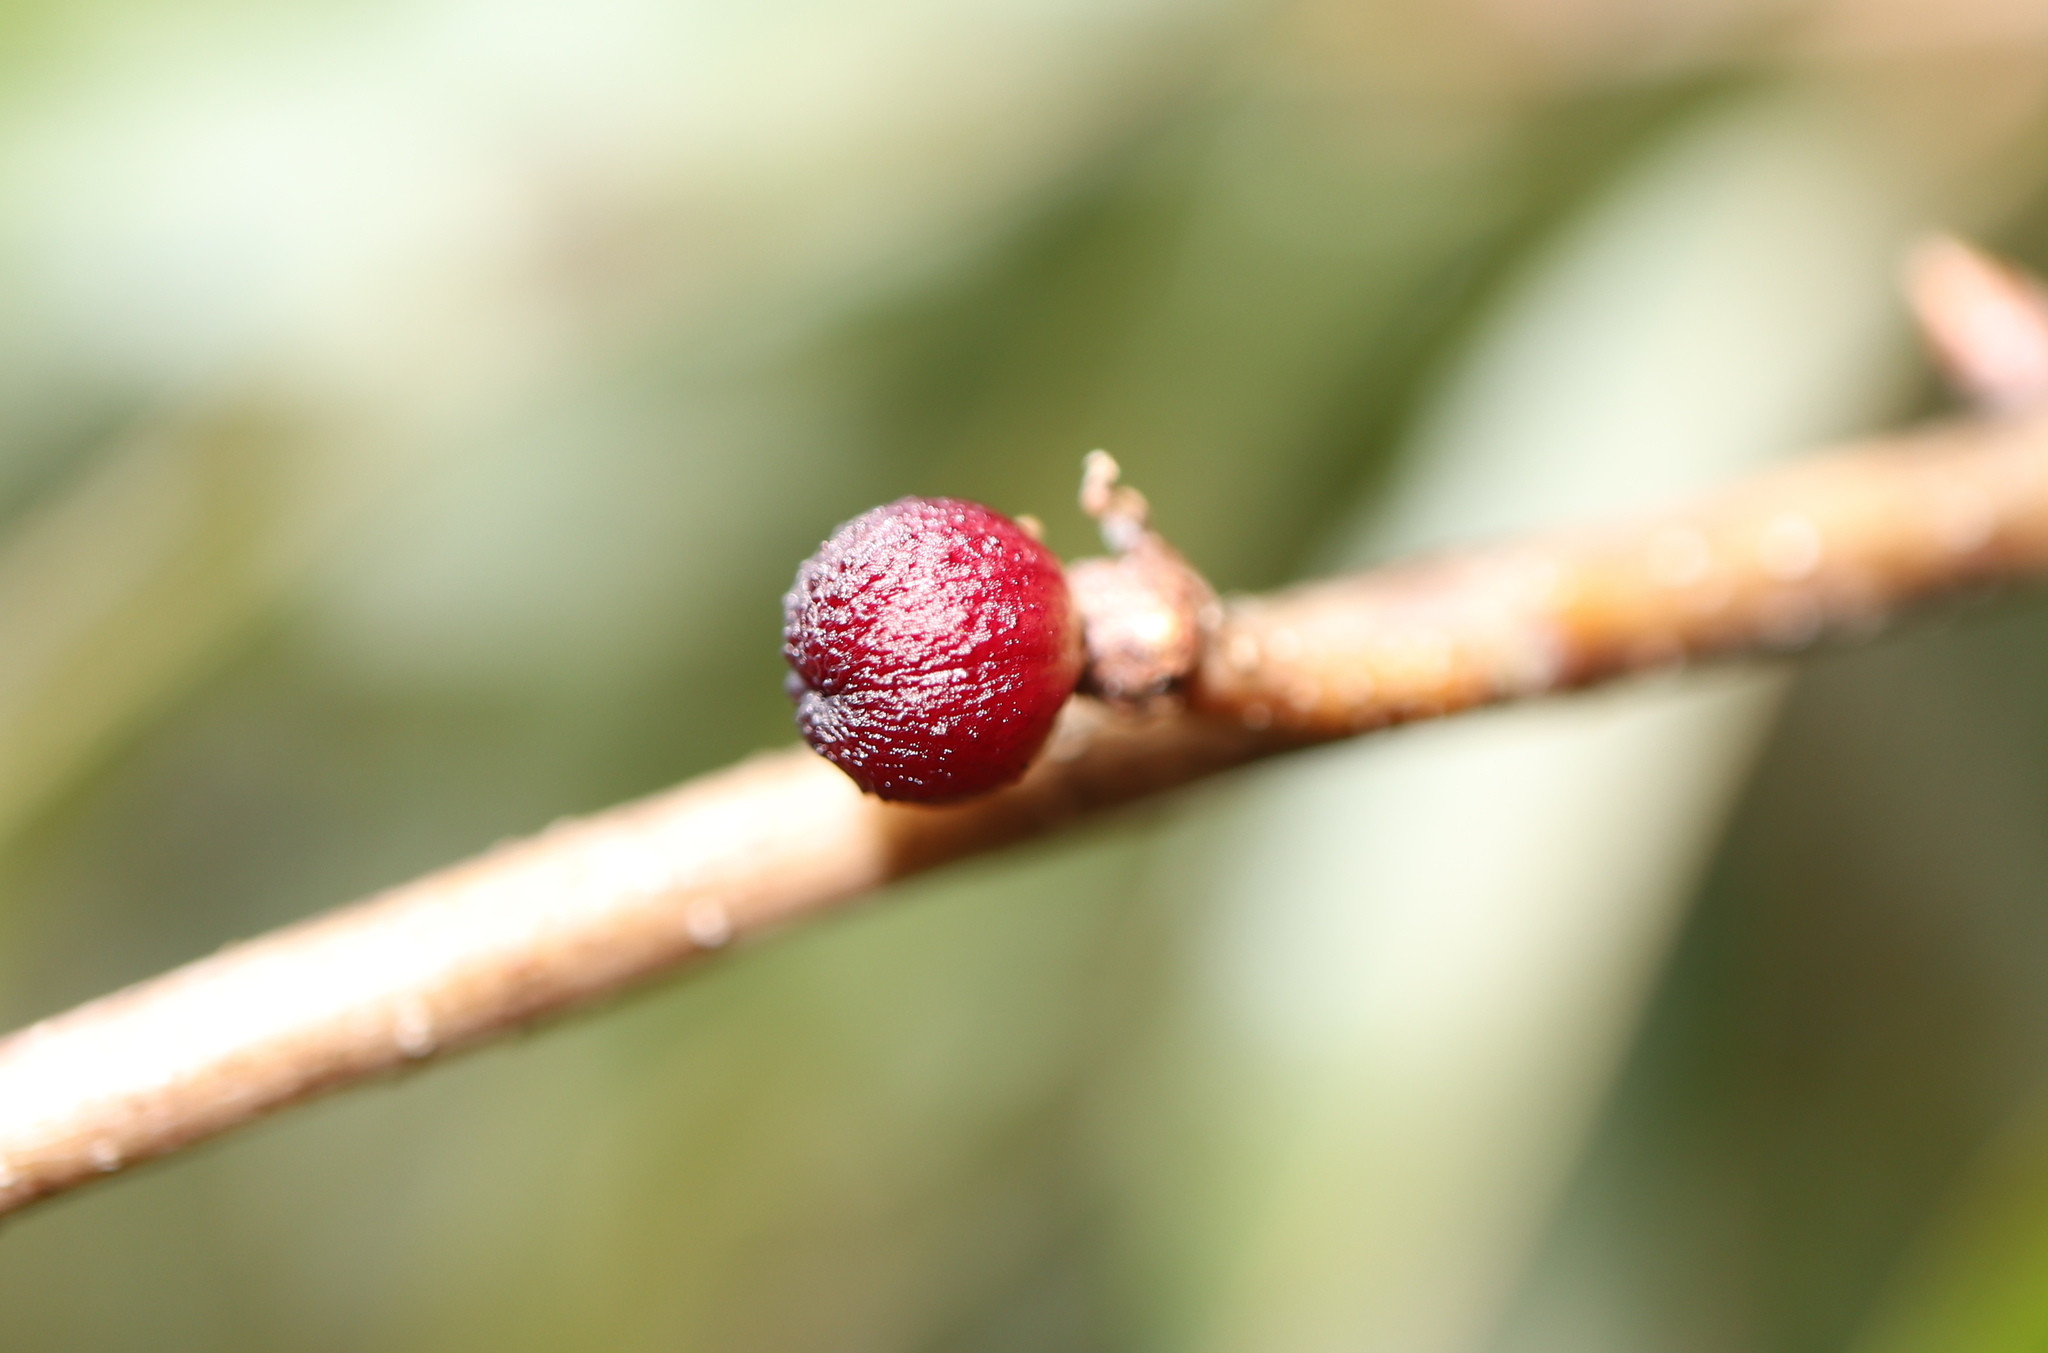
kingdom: Animalia
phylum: Arthropoda
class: Insecta
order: Hymenoptera
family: Cynipidae
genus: Callirhytis
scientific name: Callirhytis
